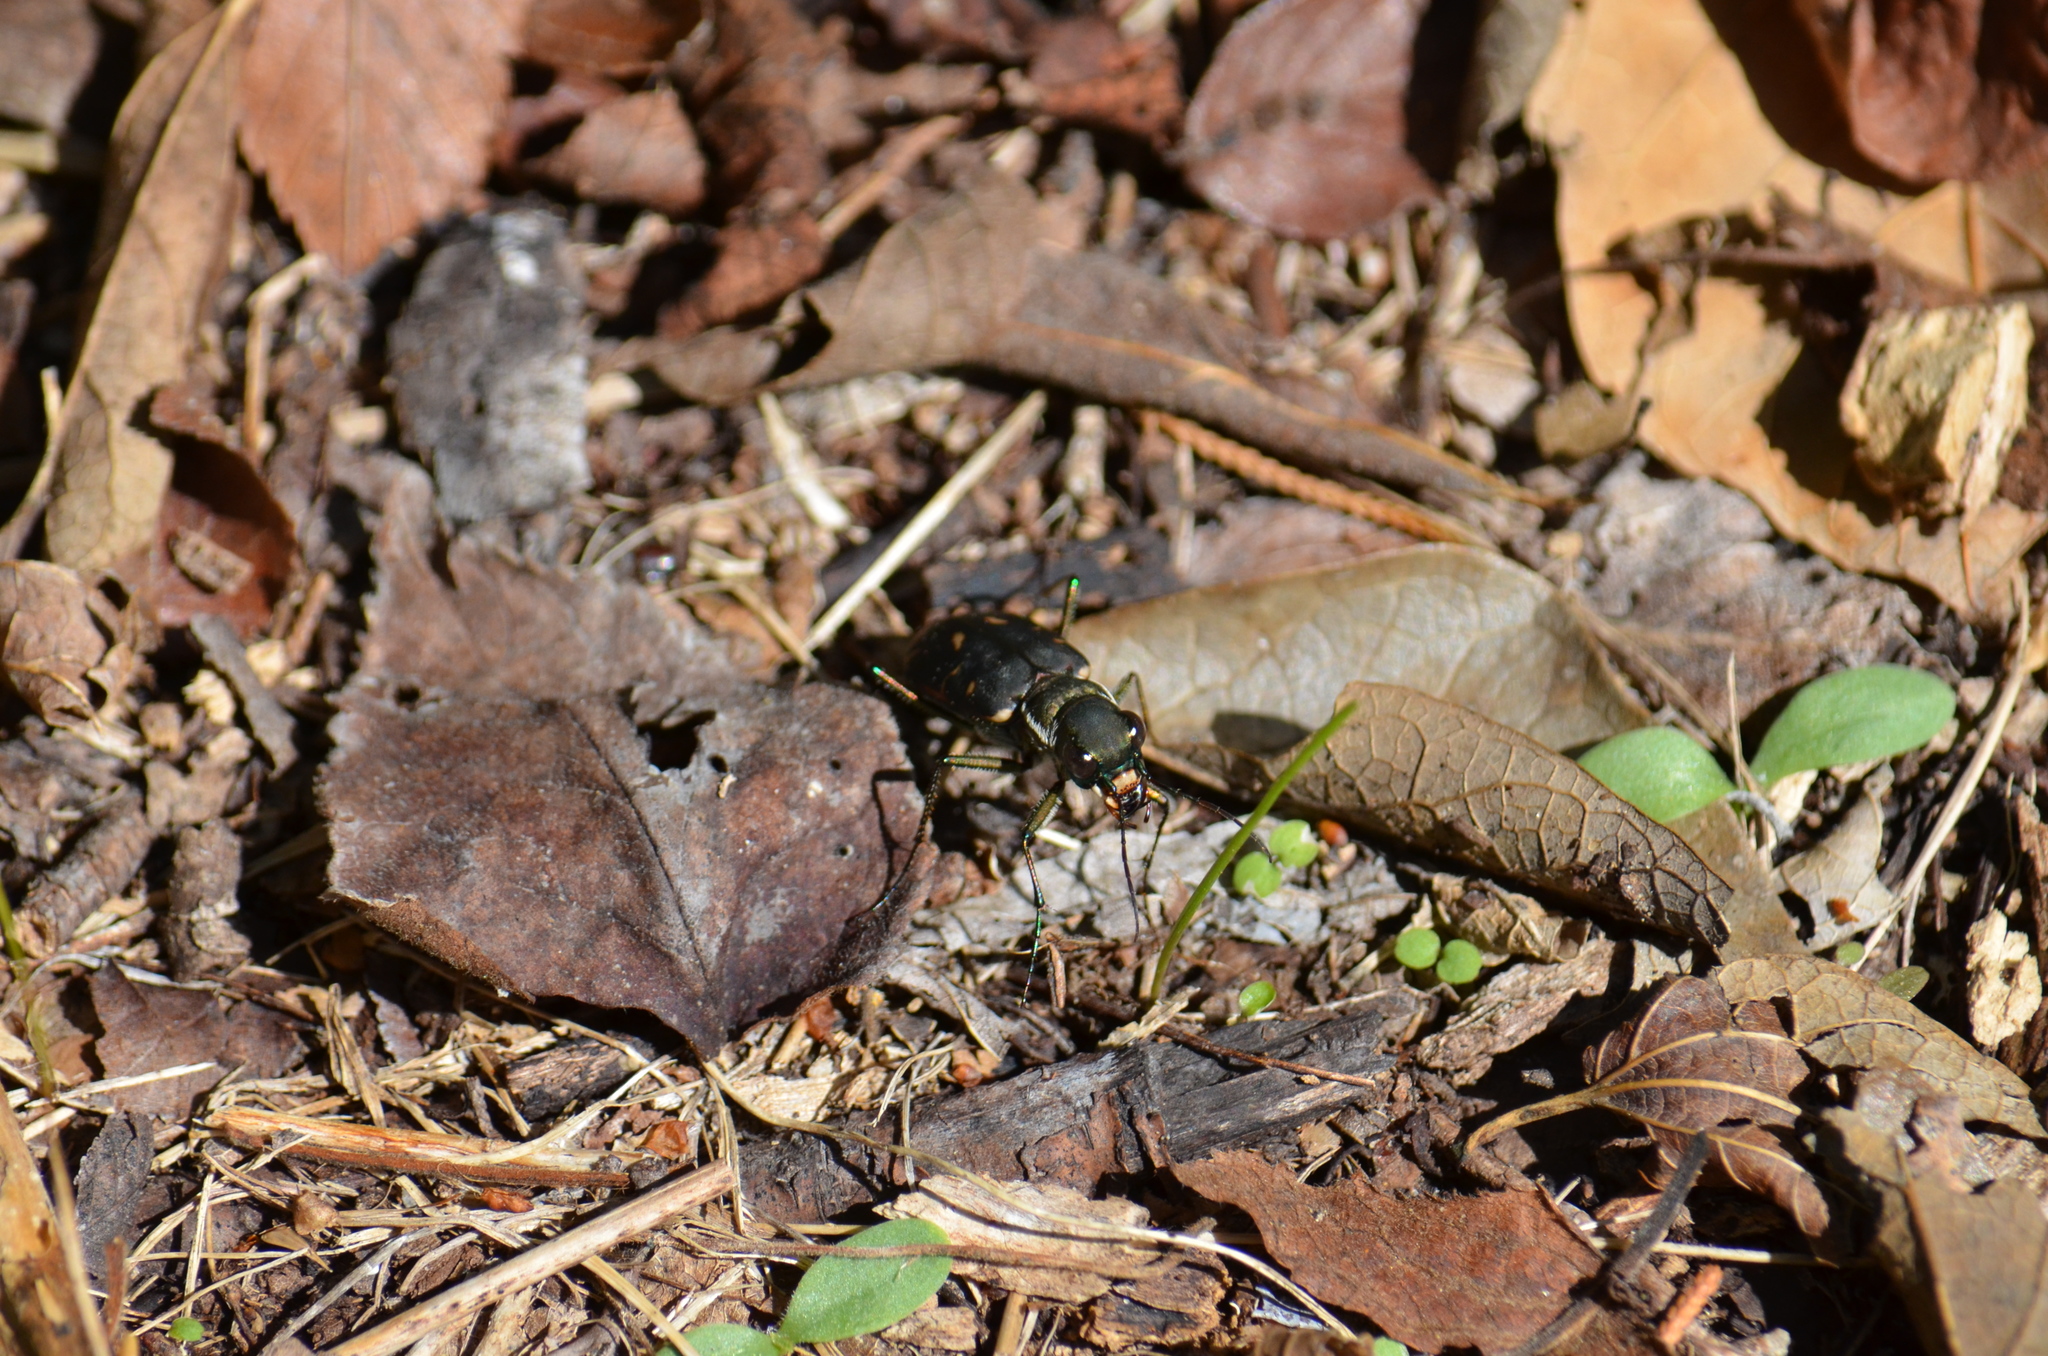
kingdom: Animalia
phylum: Arthropoda
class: Insecta
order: Coleoptera
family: Carabidae
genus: Cicindela
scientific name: Cicindela obsoleta
